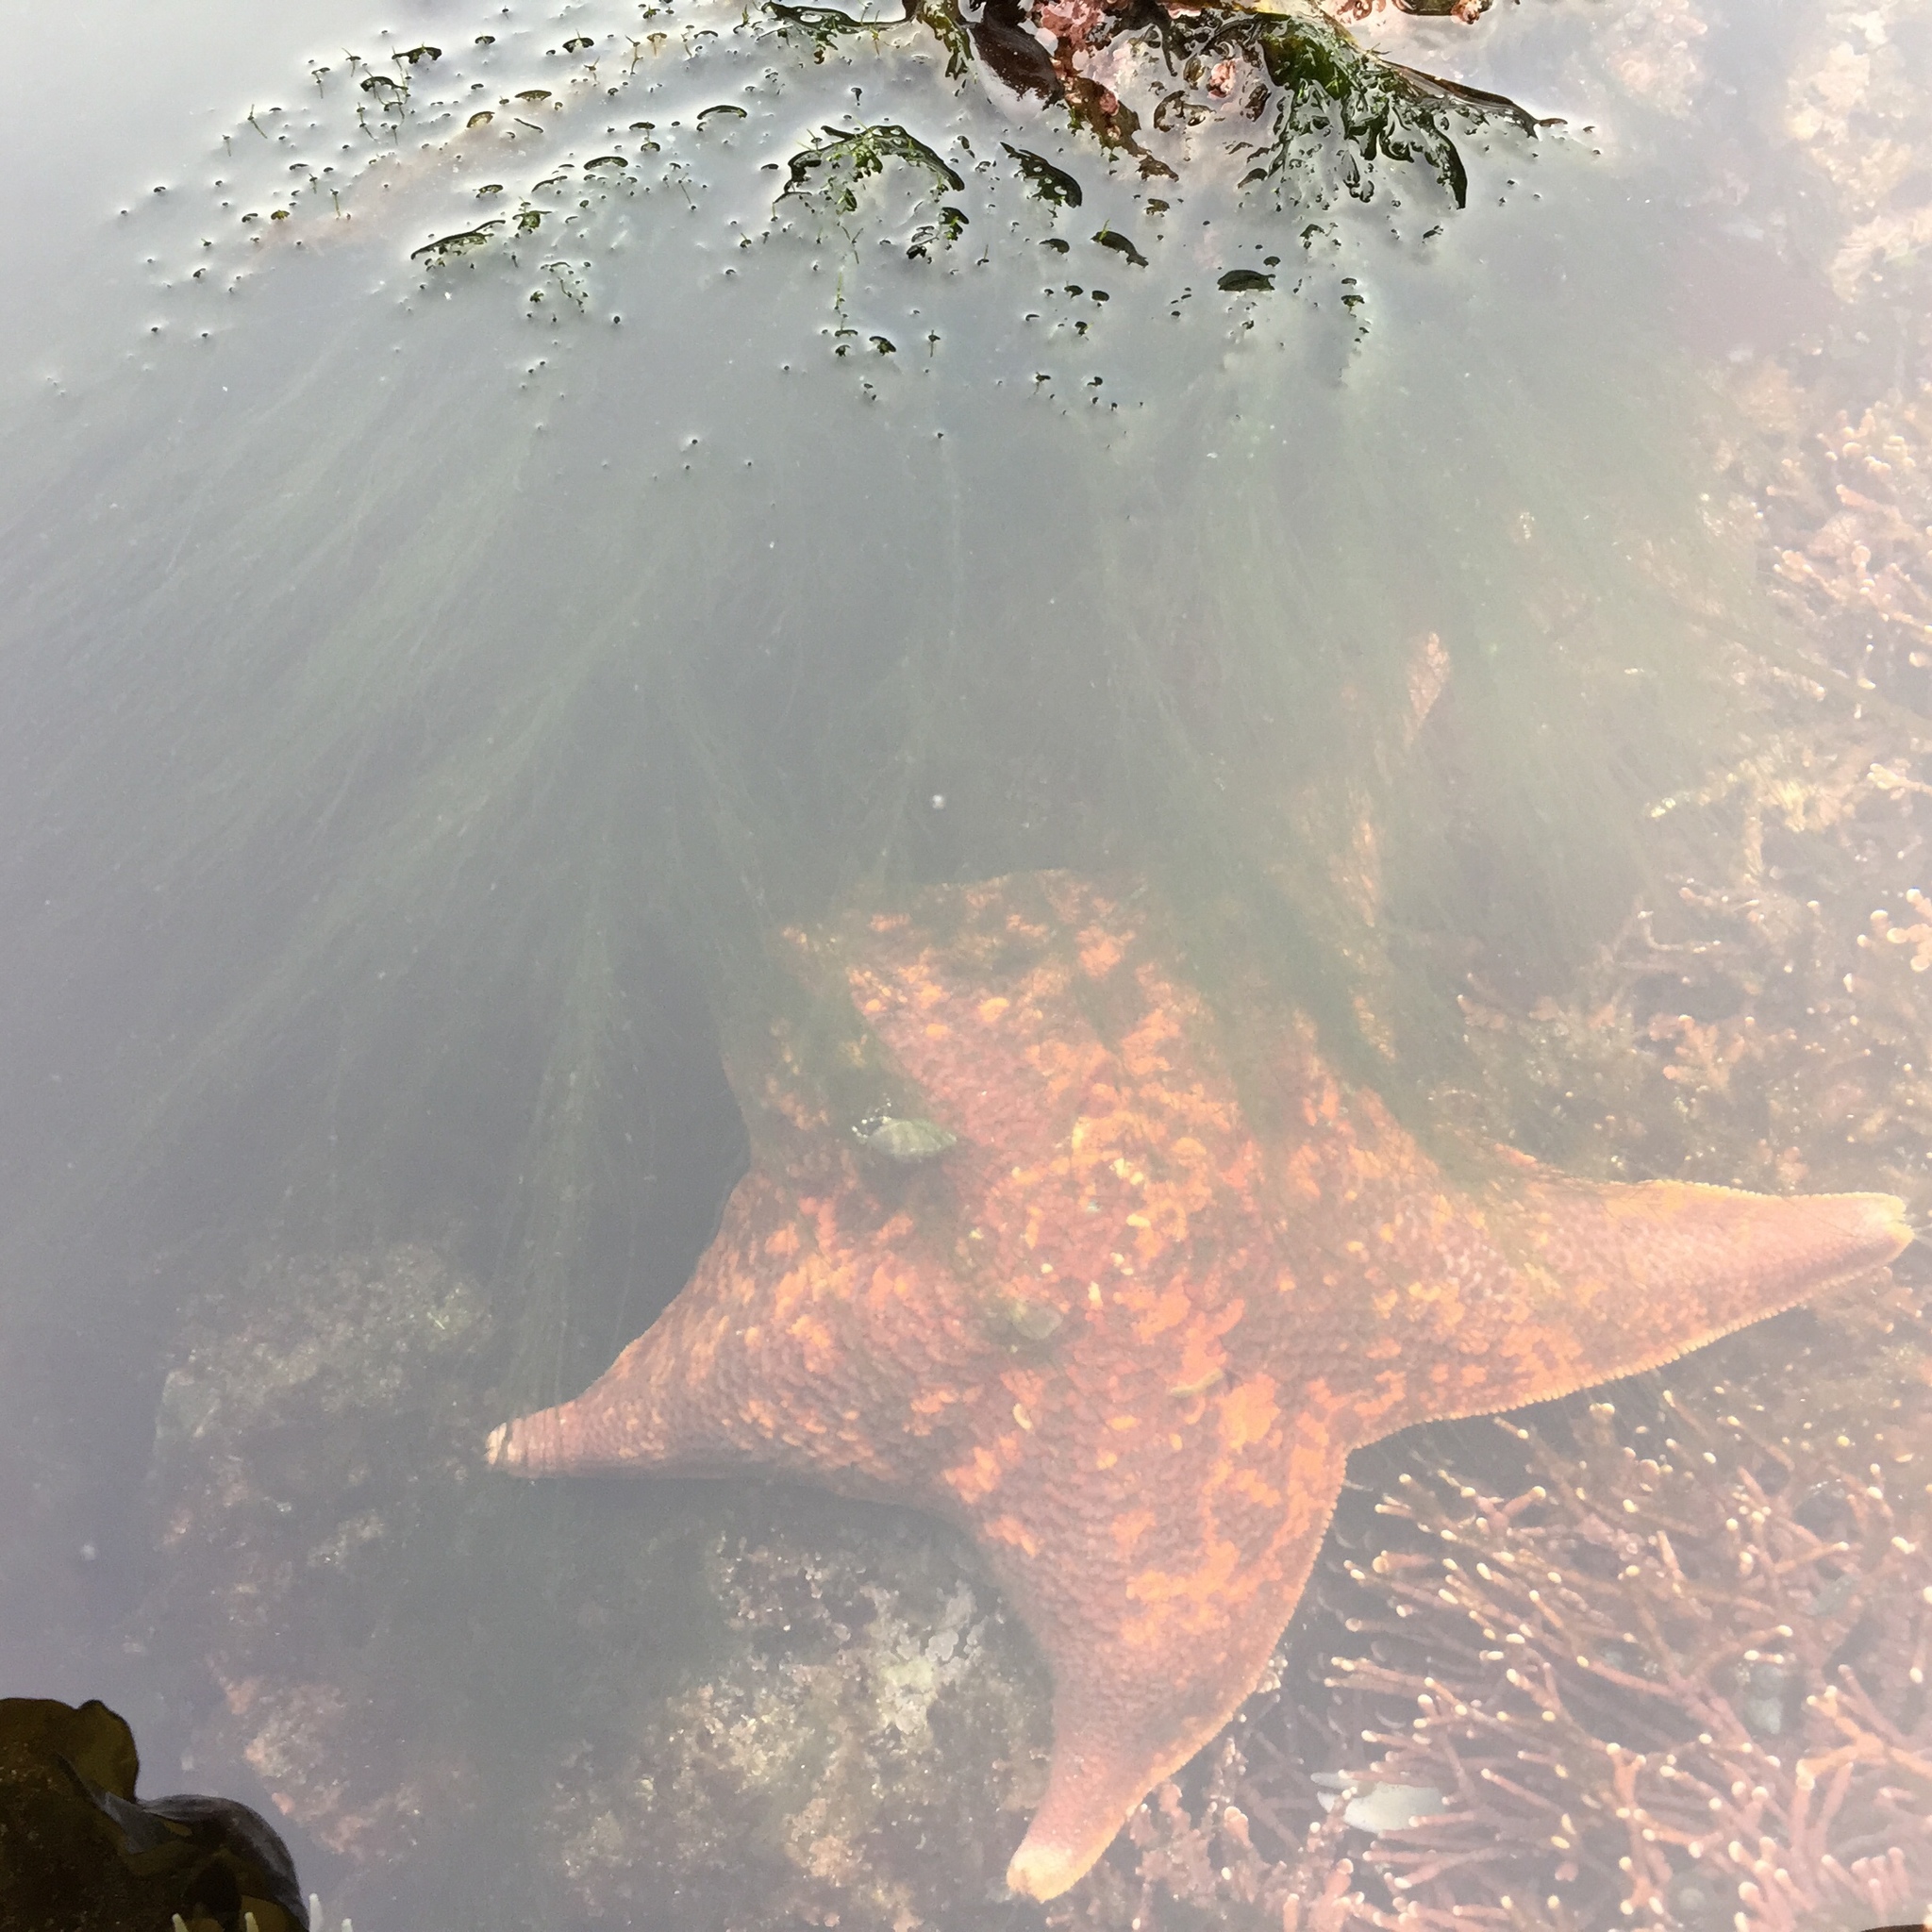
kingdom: Animalia
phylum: Echinodermata
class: Asteroidea
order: Valvatida
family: Asterinidae
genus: Patiria
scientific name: Patiria miniata
